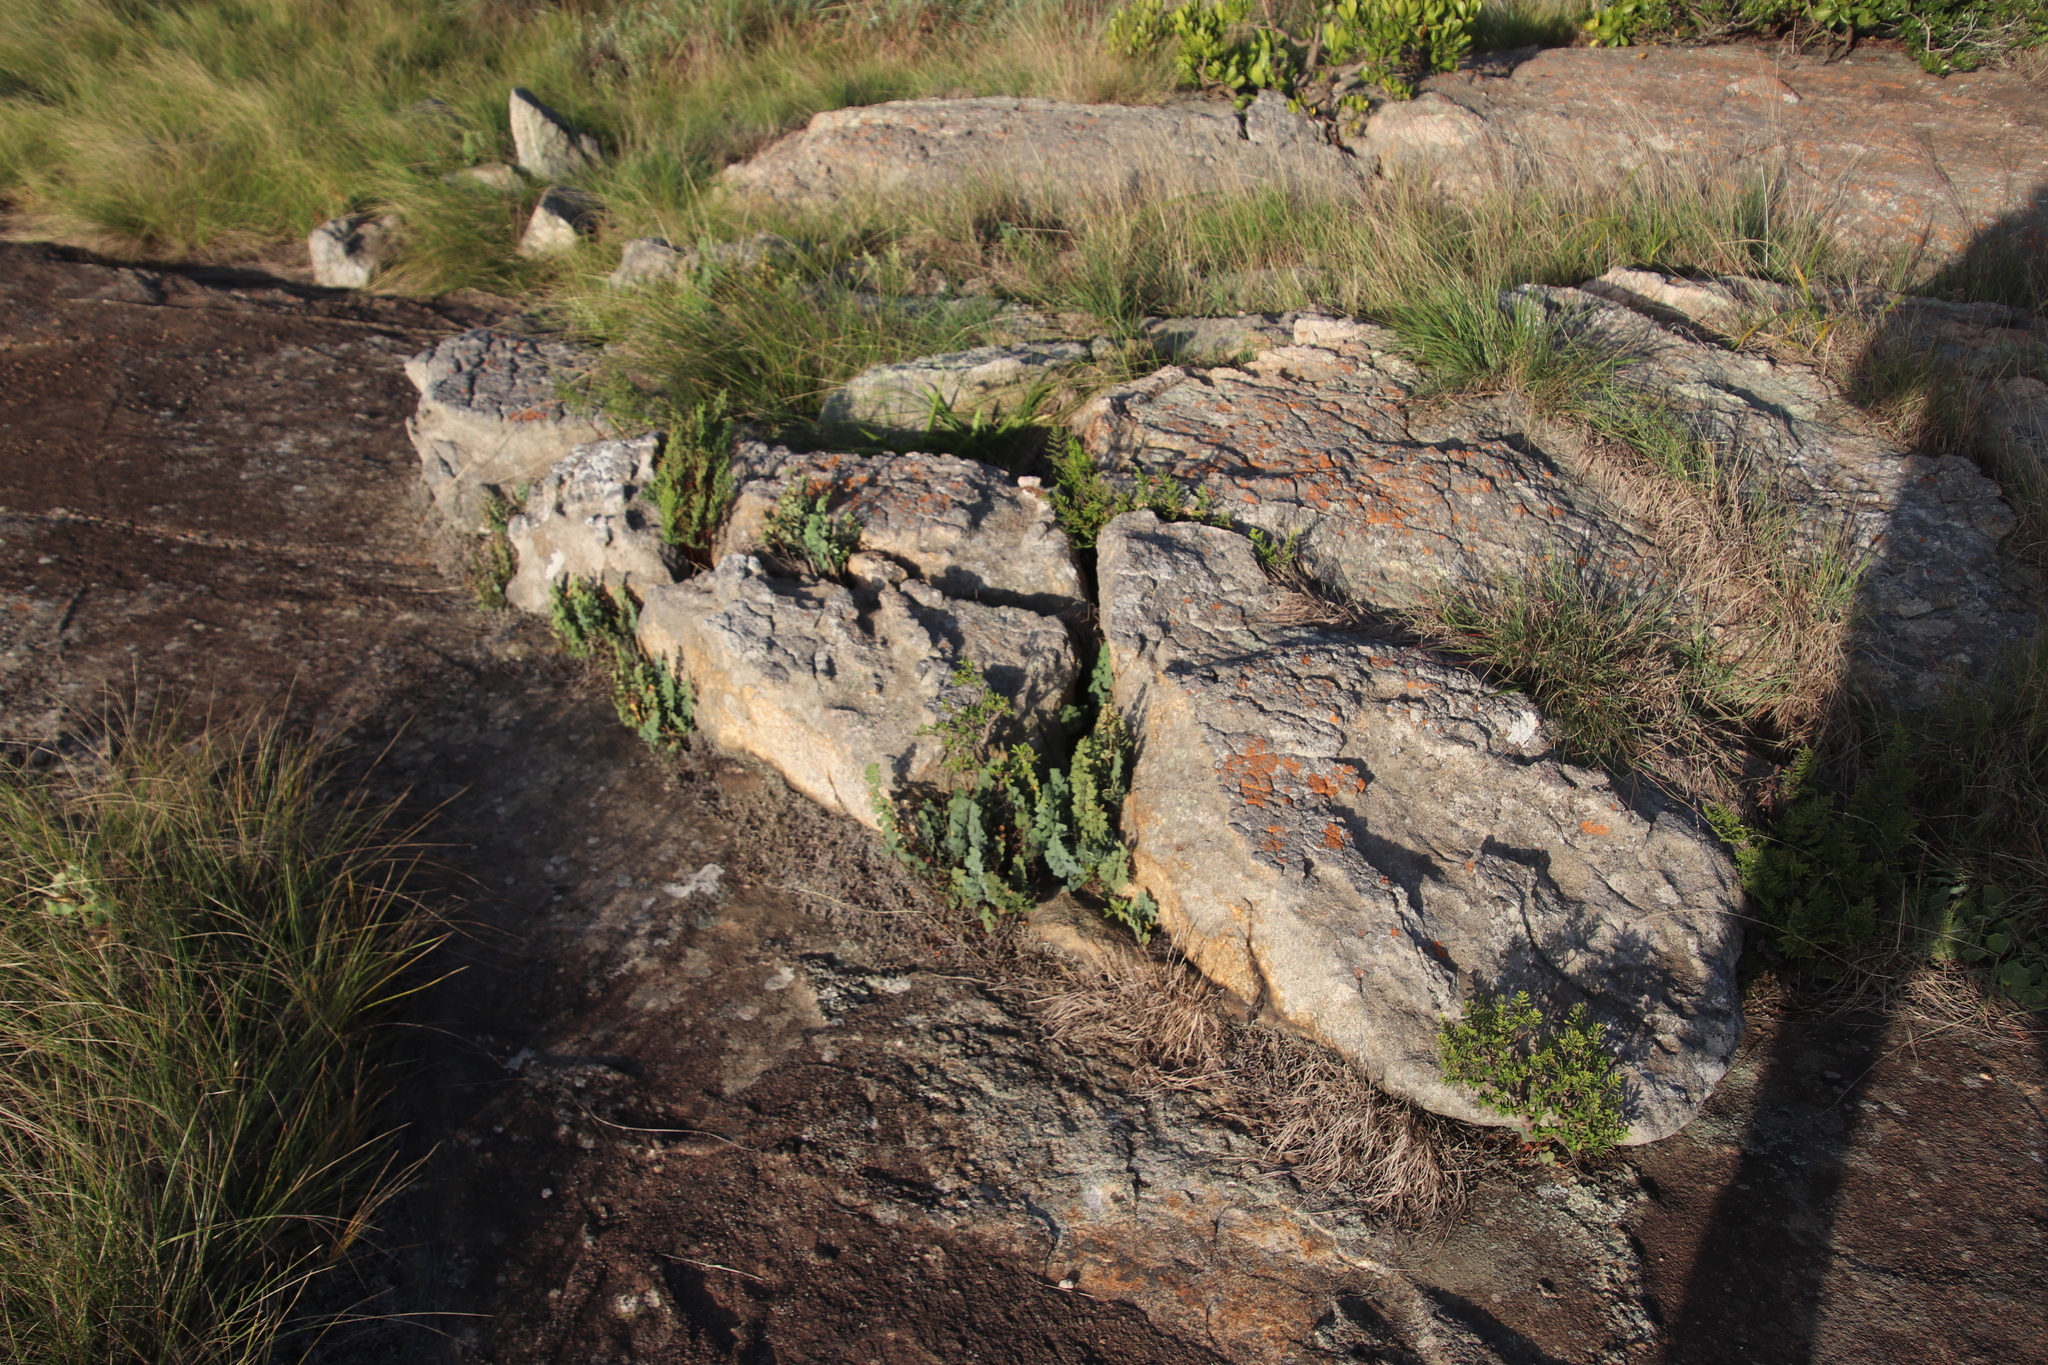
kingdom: Plantae
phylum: Tracheophyta
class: Magnoliopsida
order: Saxifragales
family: Crassulaceae
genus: Crassula
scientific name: Crassula sarcocaulis
